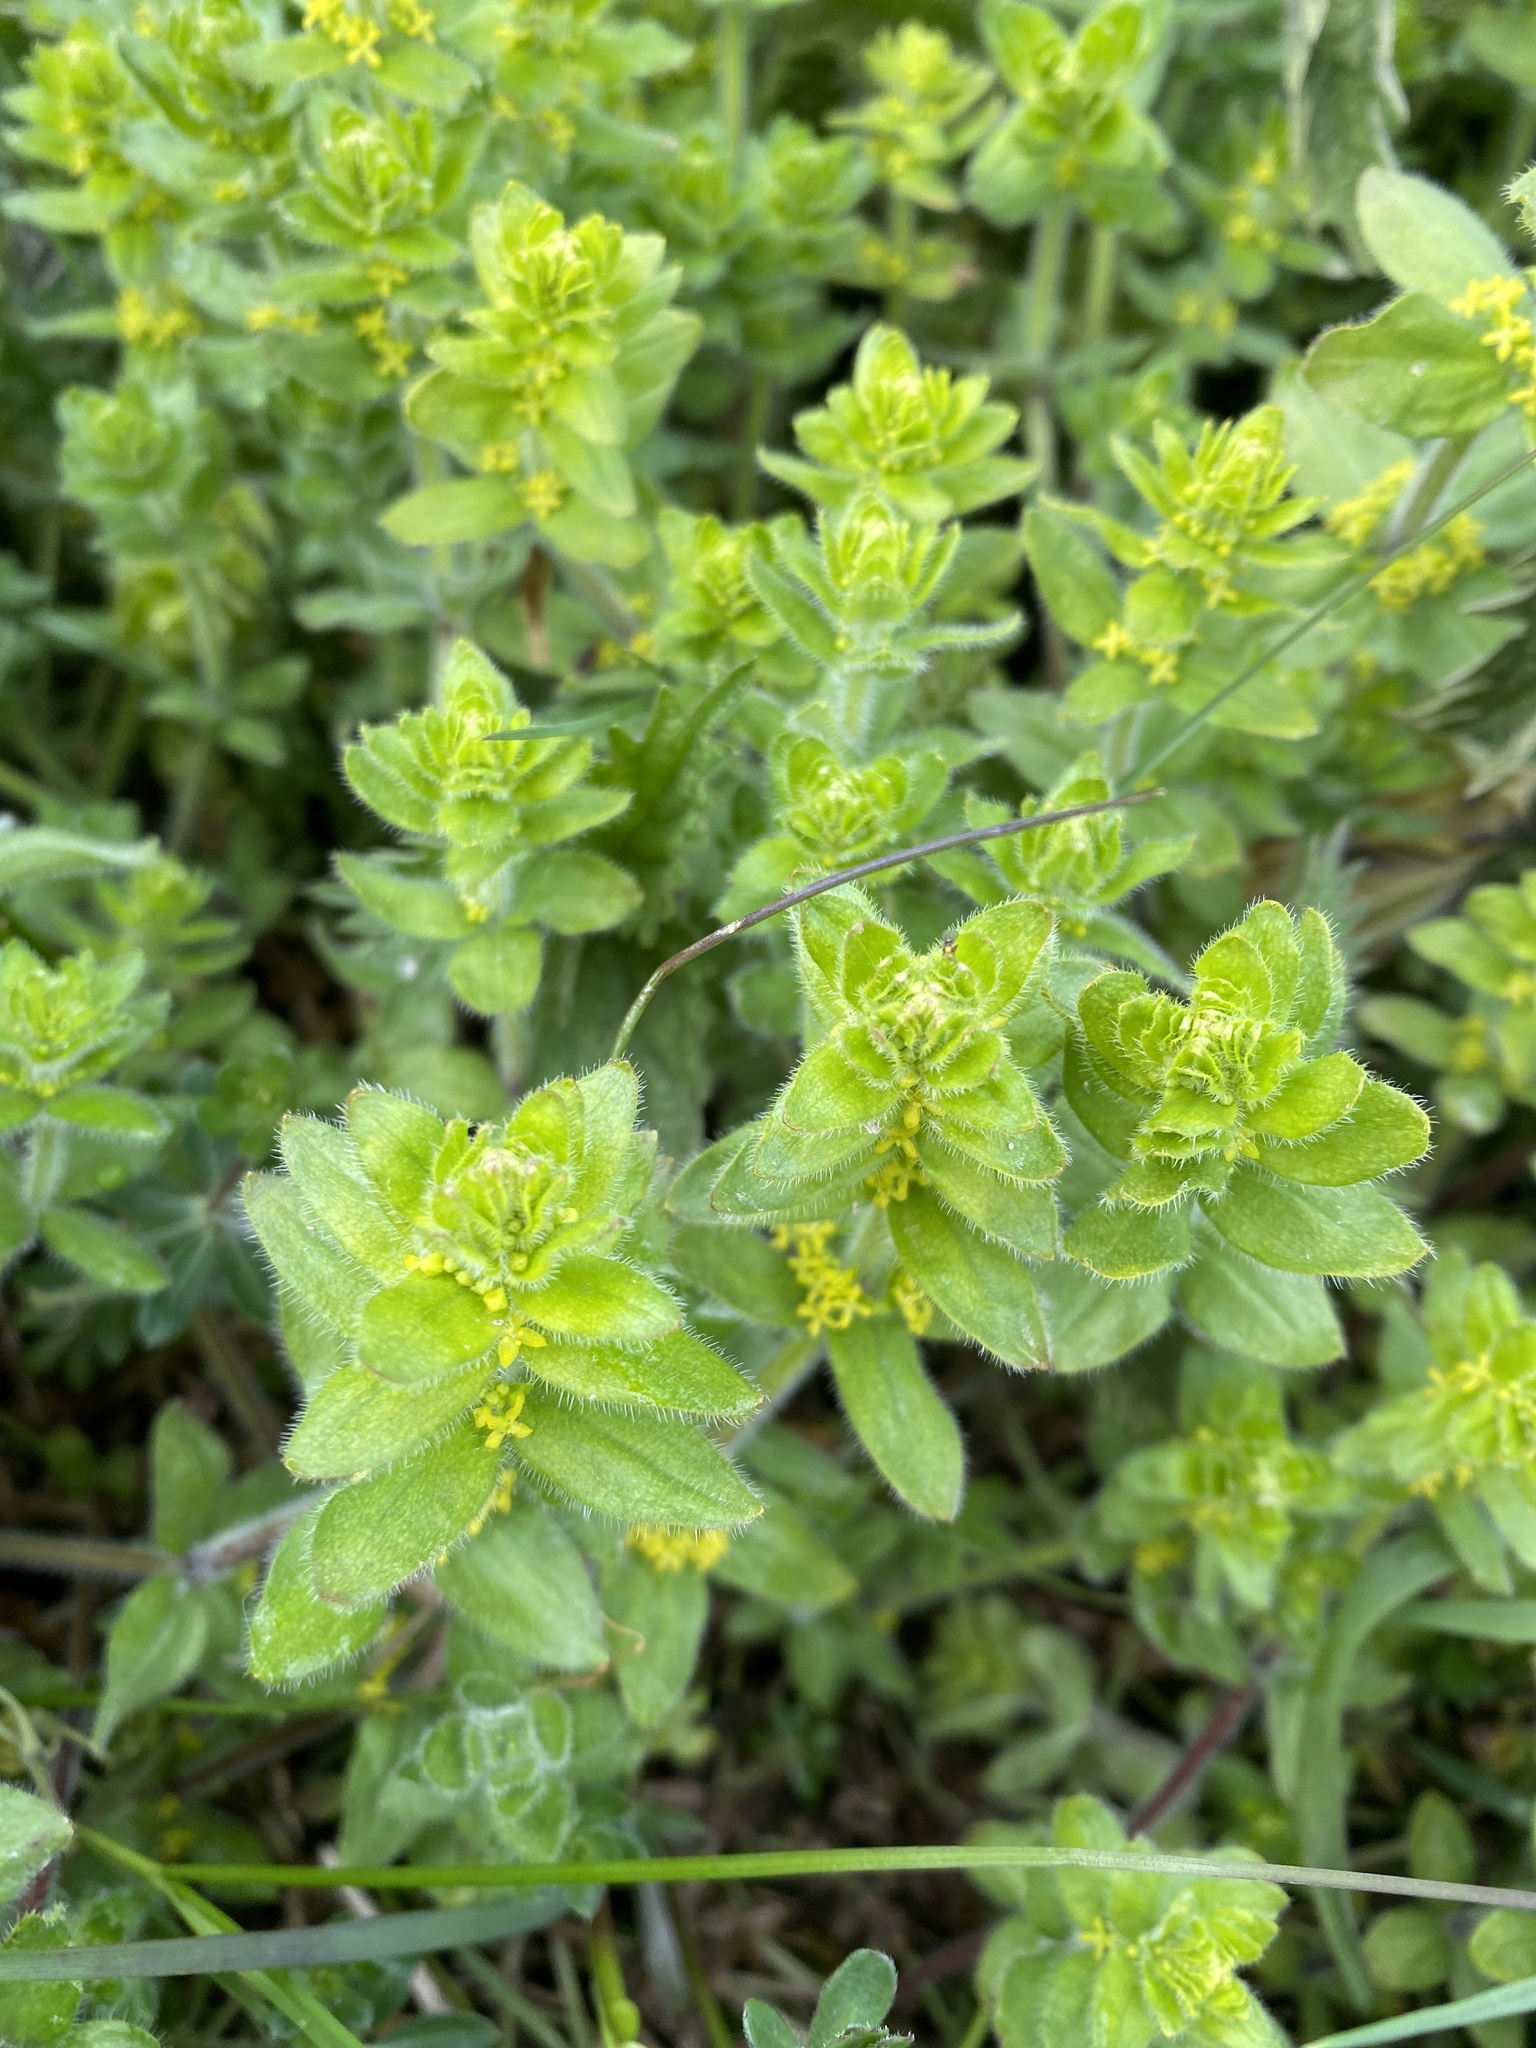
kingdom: Plantae
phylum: Tracheophyta
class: Magnoliopsida
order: Gentianales
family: Rubiaceae
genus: Cruciata
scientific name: Cruciata laevipes
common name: Crosswort
